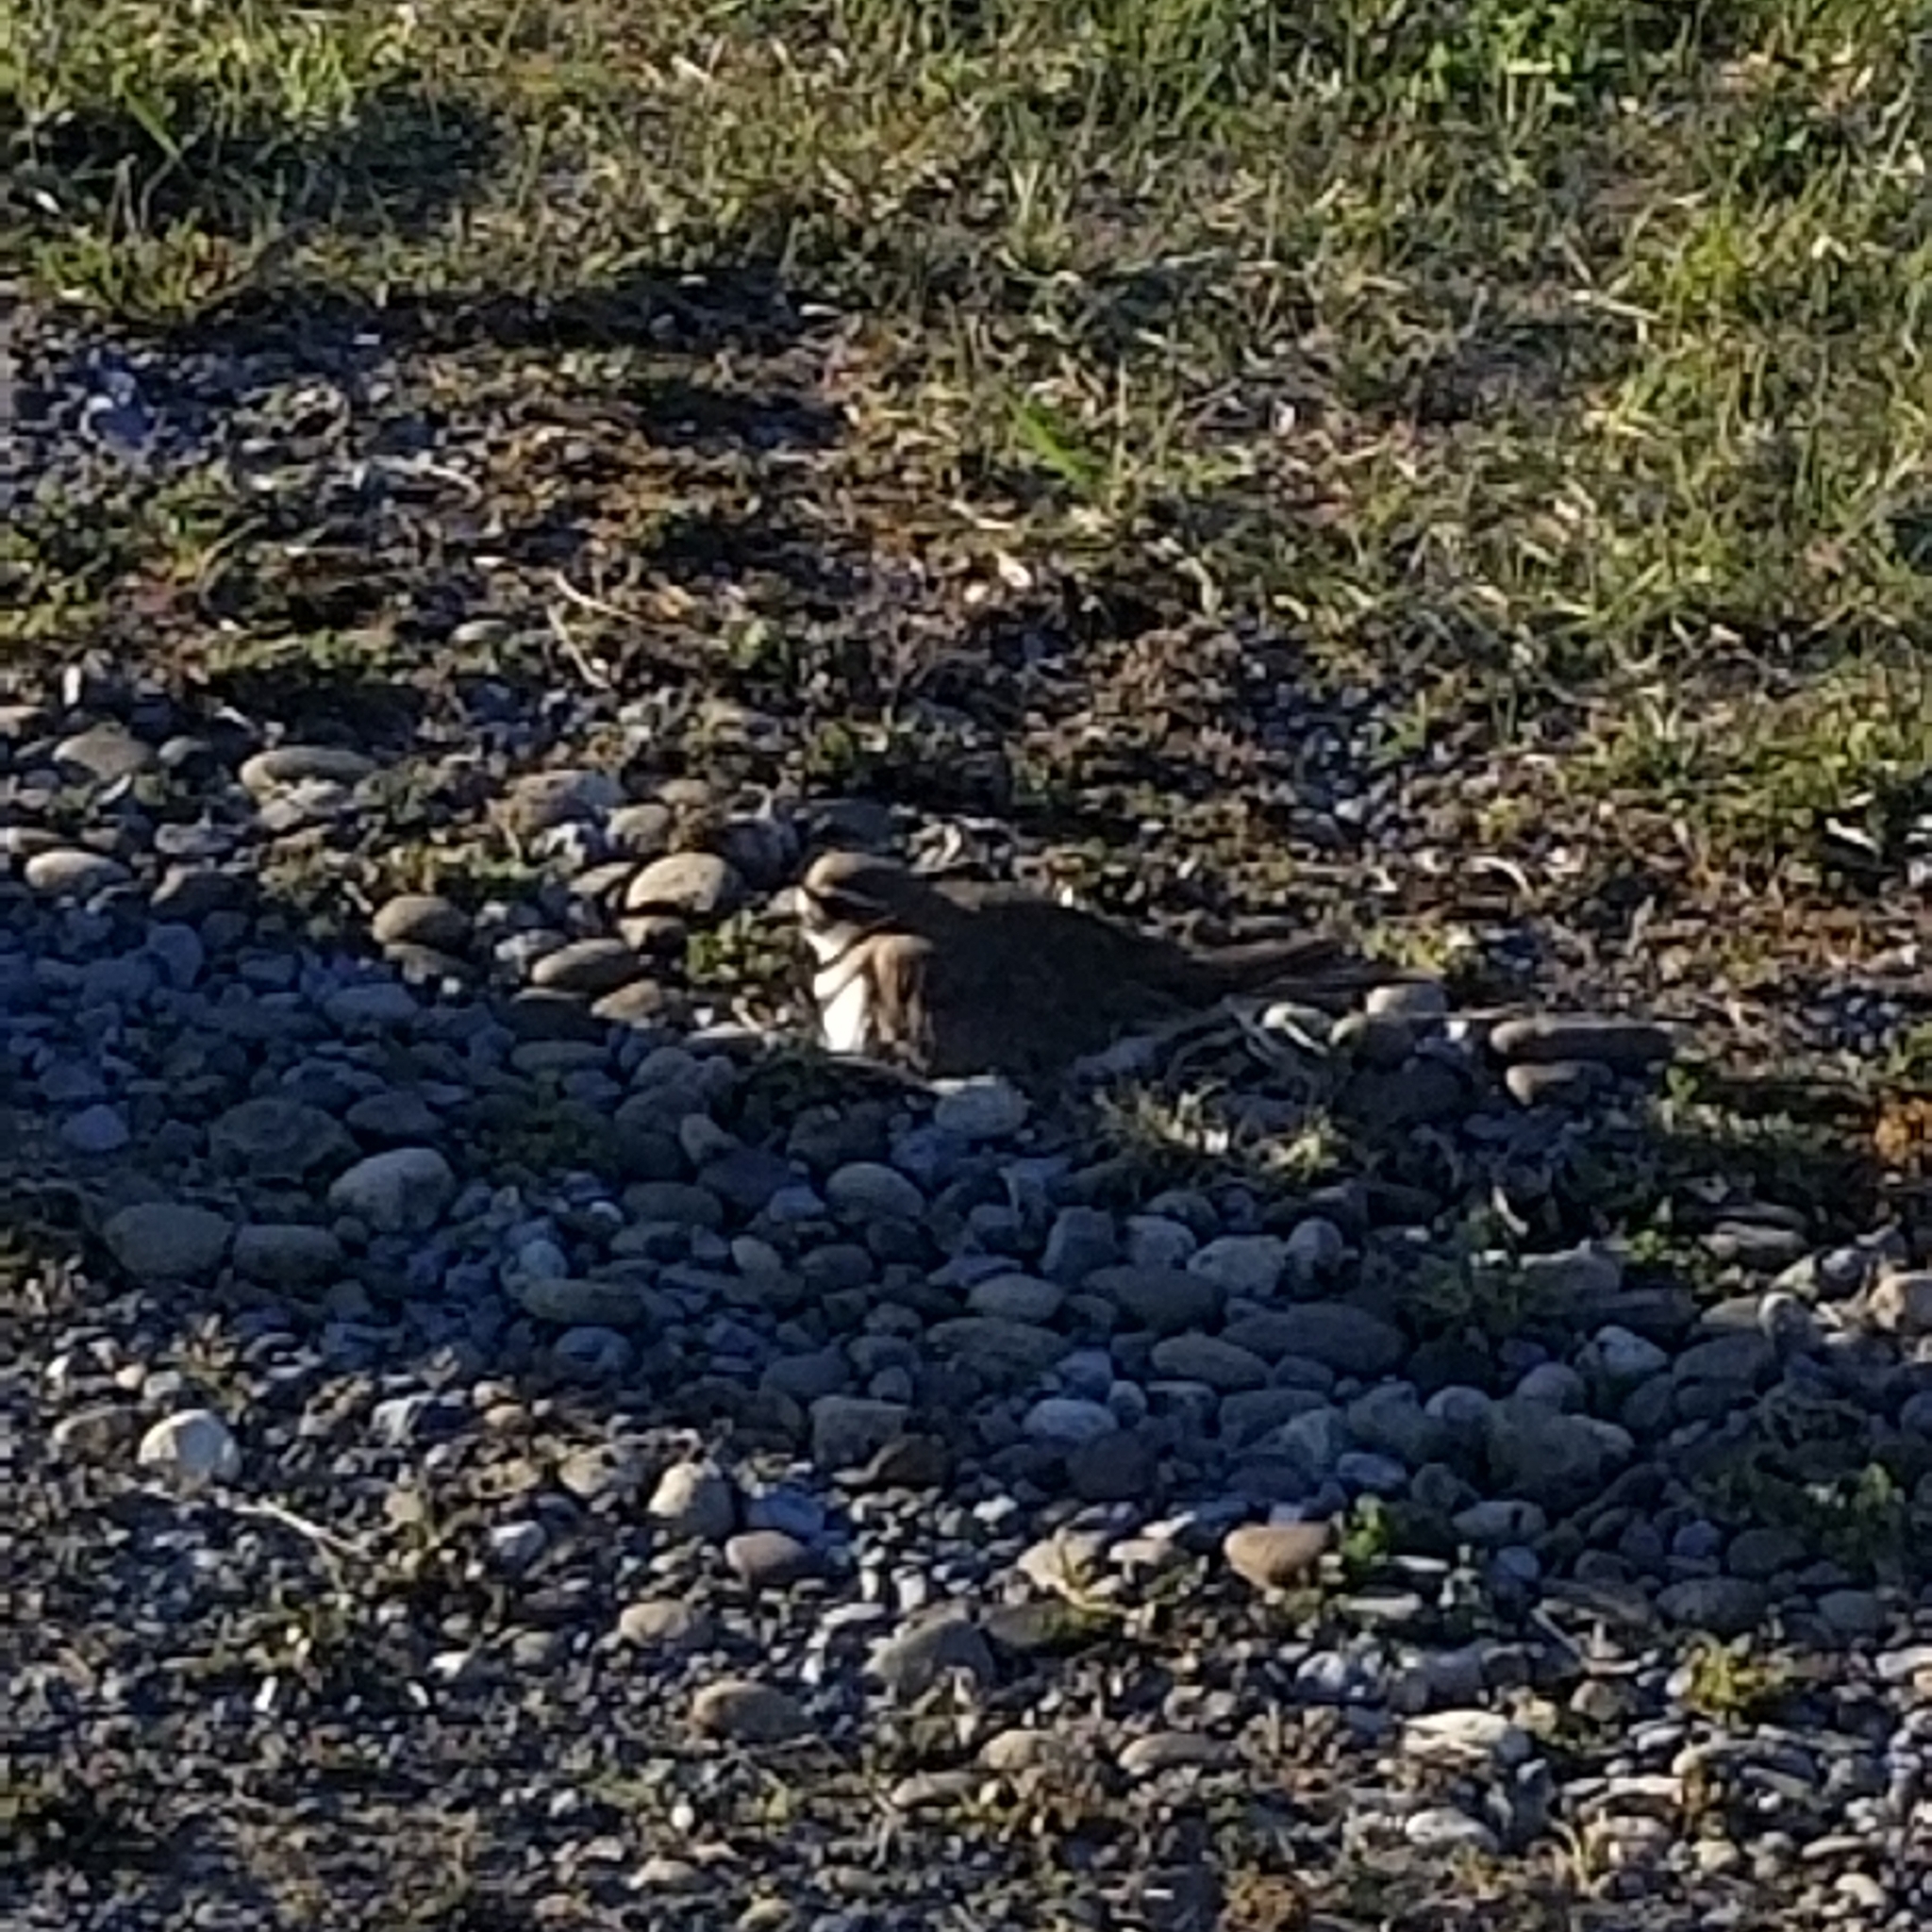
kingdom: Animalia
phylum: Chordata
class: Aves
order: Charadriiformes
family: Charadriidae
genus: Charadrius
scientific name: Charadrius vociferus
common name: Killdeer
